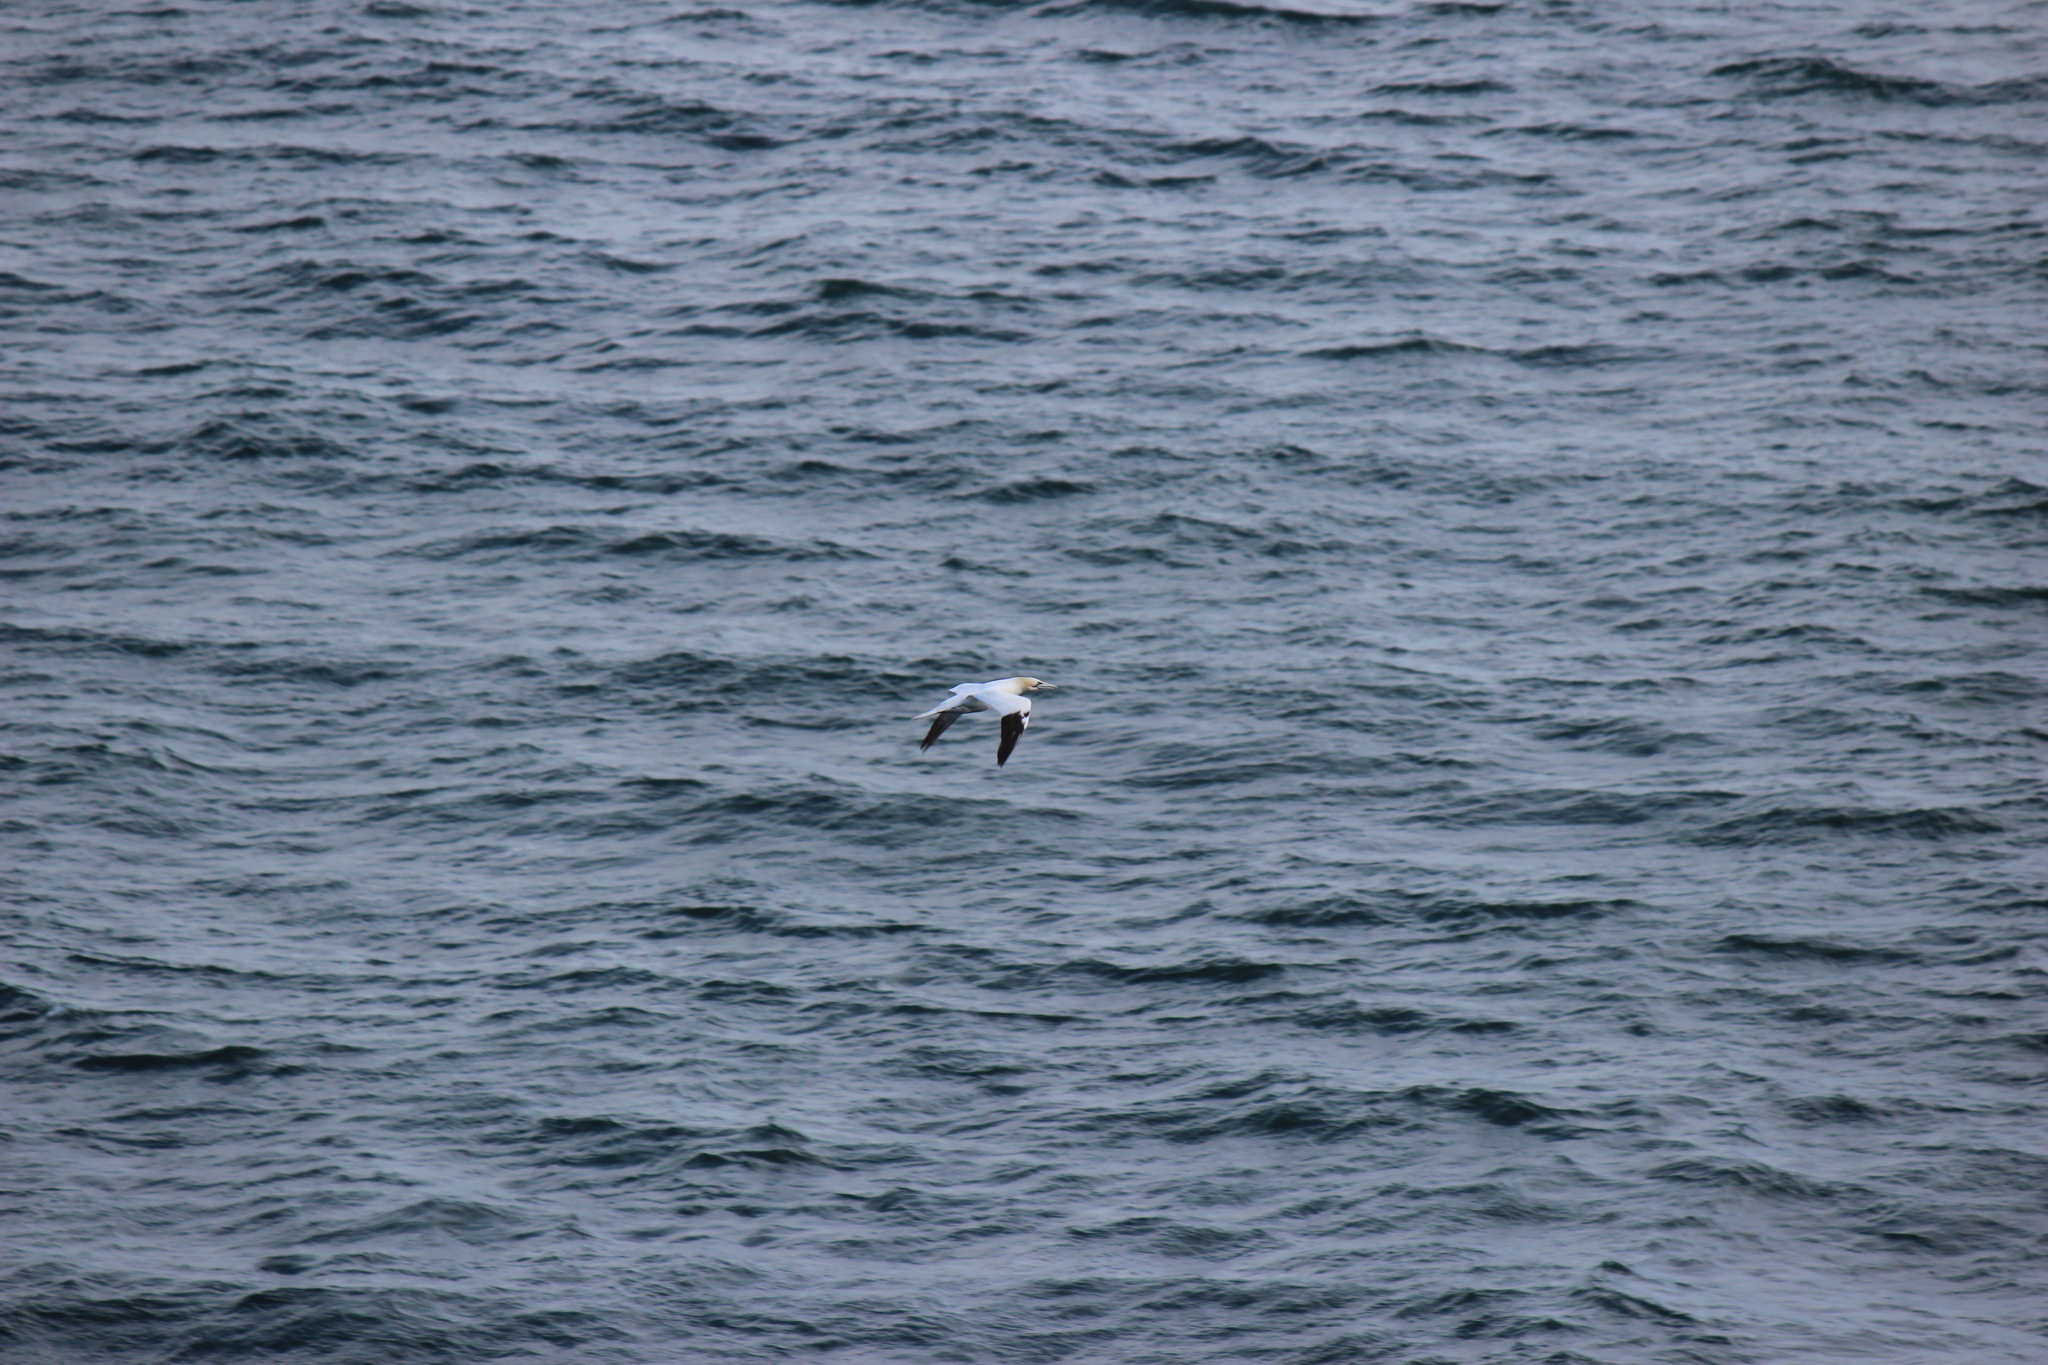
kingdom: Animalia
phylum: Chordata
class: Aves
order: Suliformes
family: Sulidae
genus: Morus
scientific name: Morus bassanus
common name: Northern gannet
